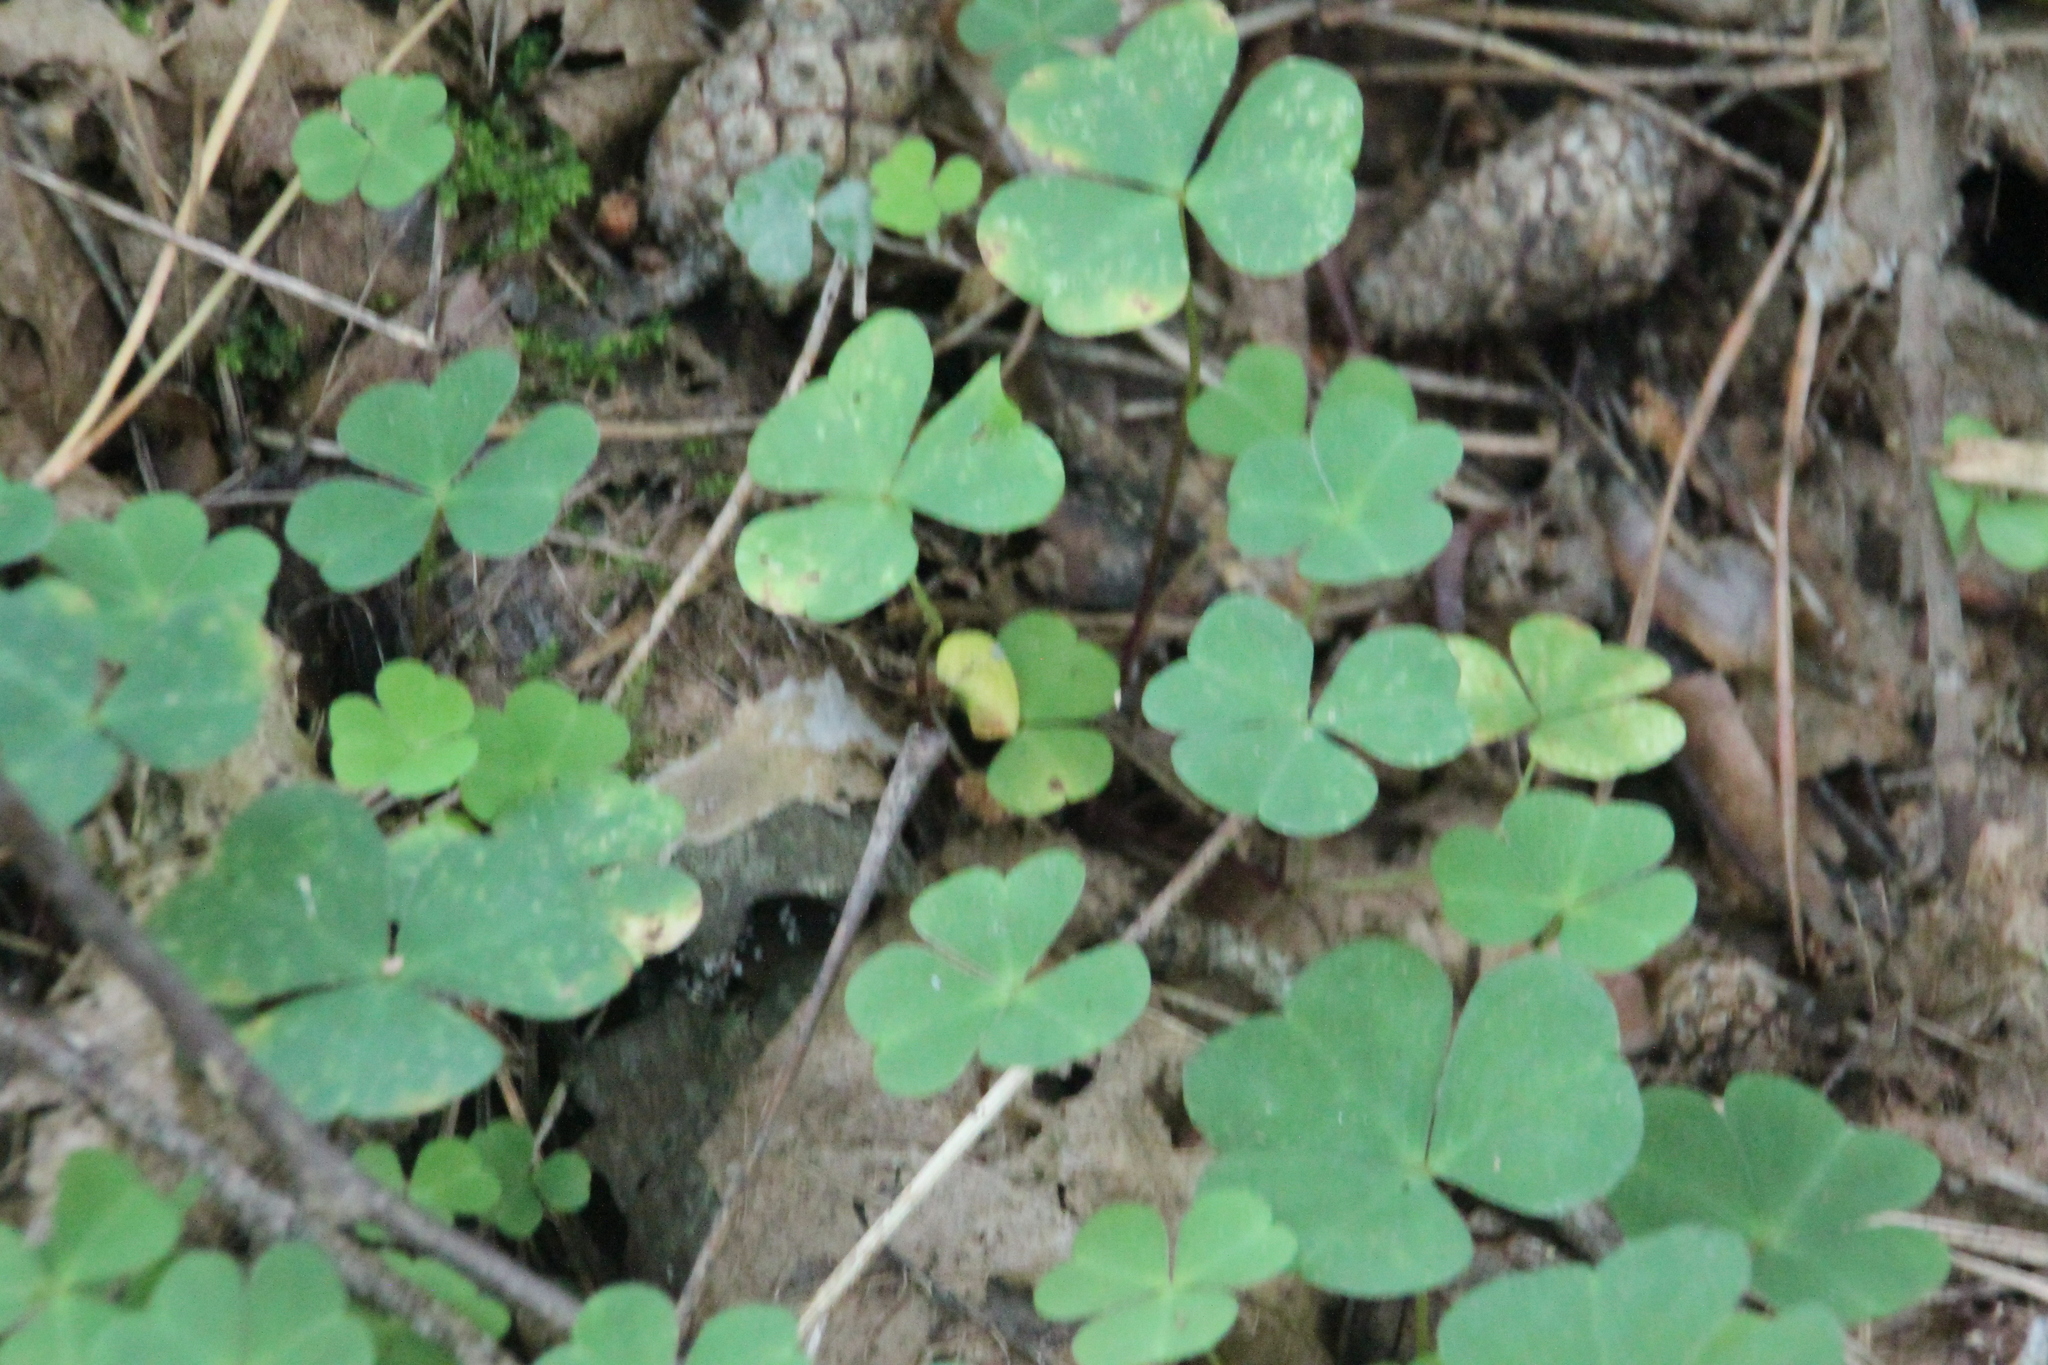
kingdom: Plantae
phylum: Tracheophyta
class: Magnoliopsida
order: Oxalidales
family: Oxalidaceae
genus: Oxalis
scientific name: Oxalis acetosella
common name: Wood-sorrel
